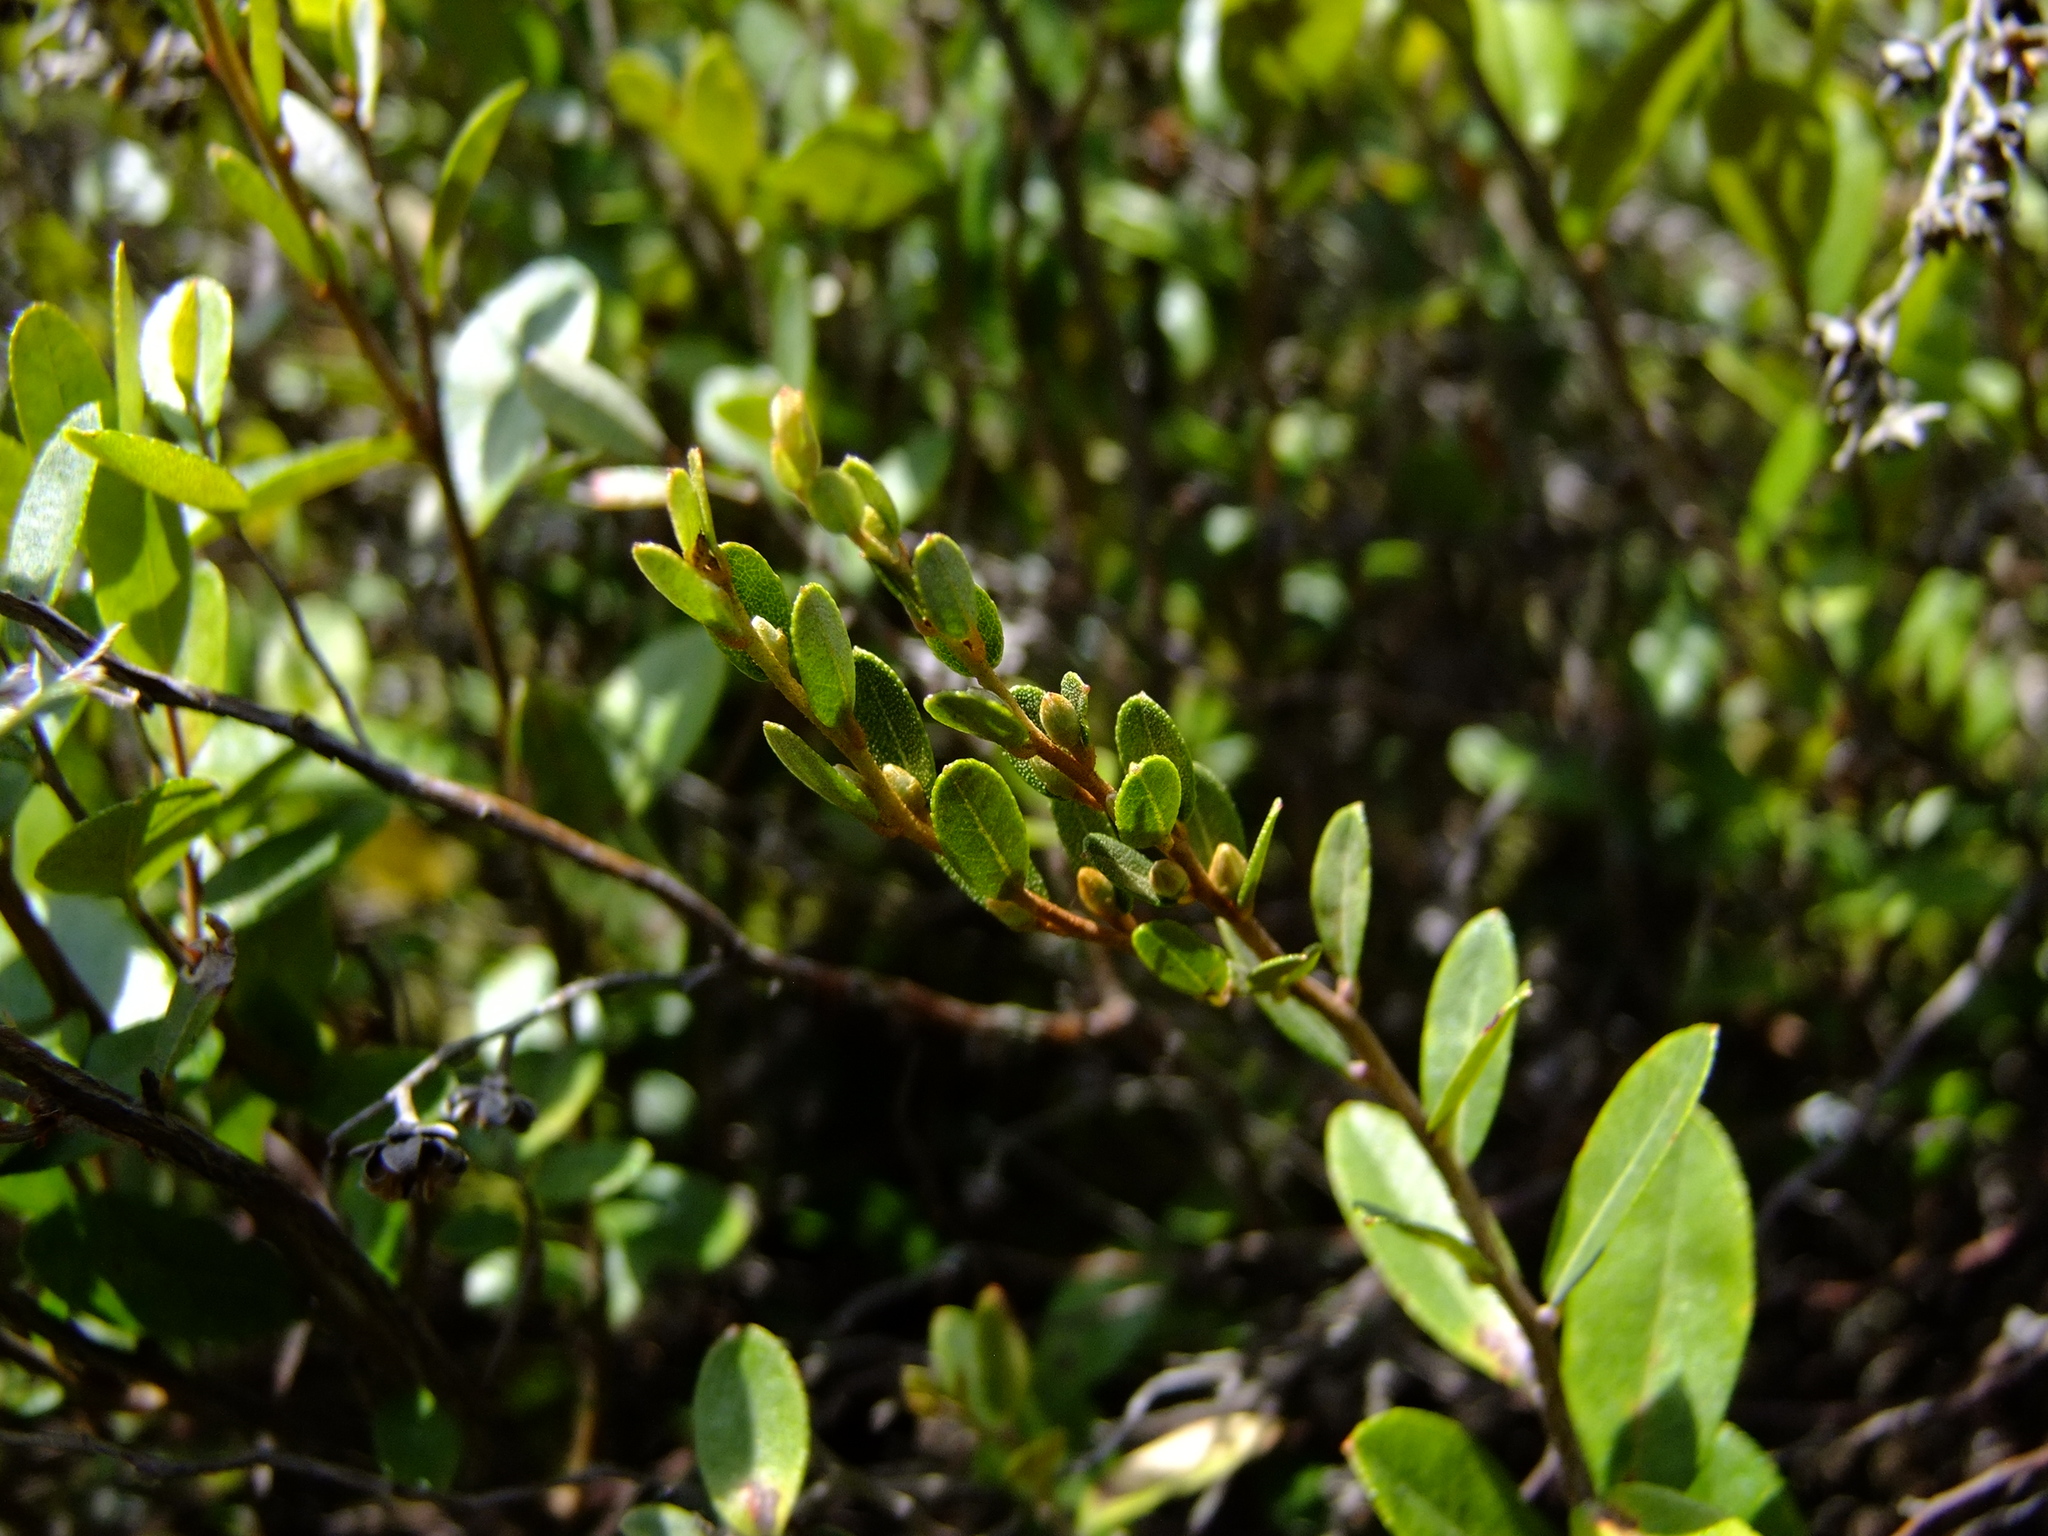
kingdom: Plantae
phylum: Tracheophyta
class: Magnoliopsida
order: Ericales
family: Ericaceae
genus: Chamaedaphne
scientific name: Chamaedaphne calyculata
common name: Leatherleaf
